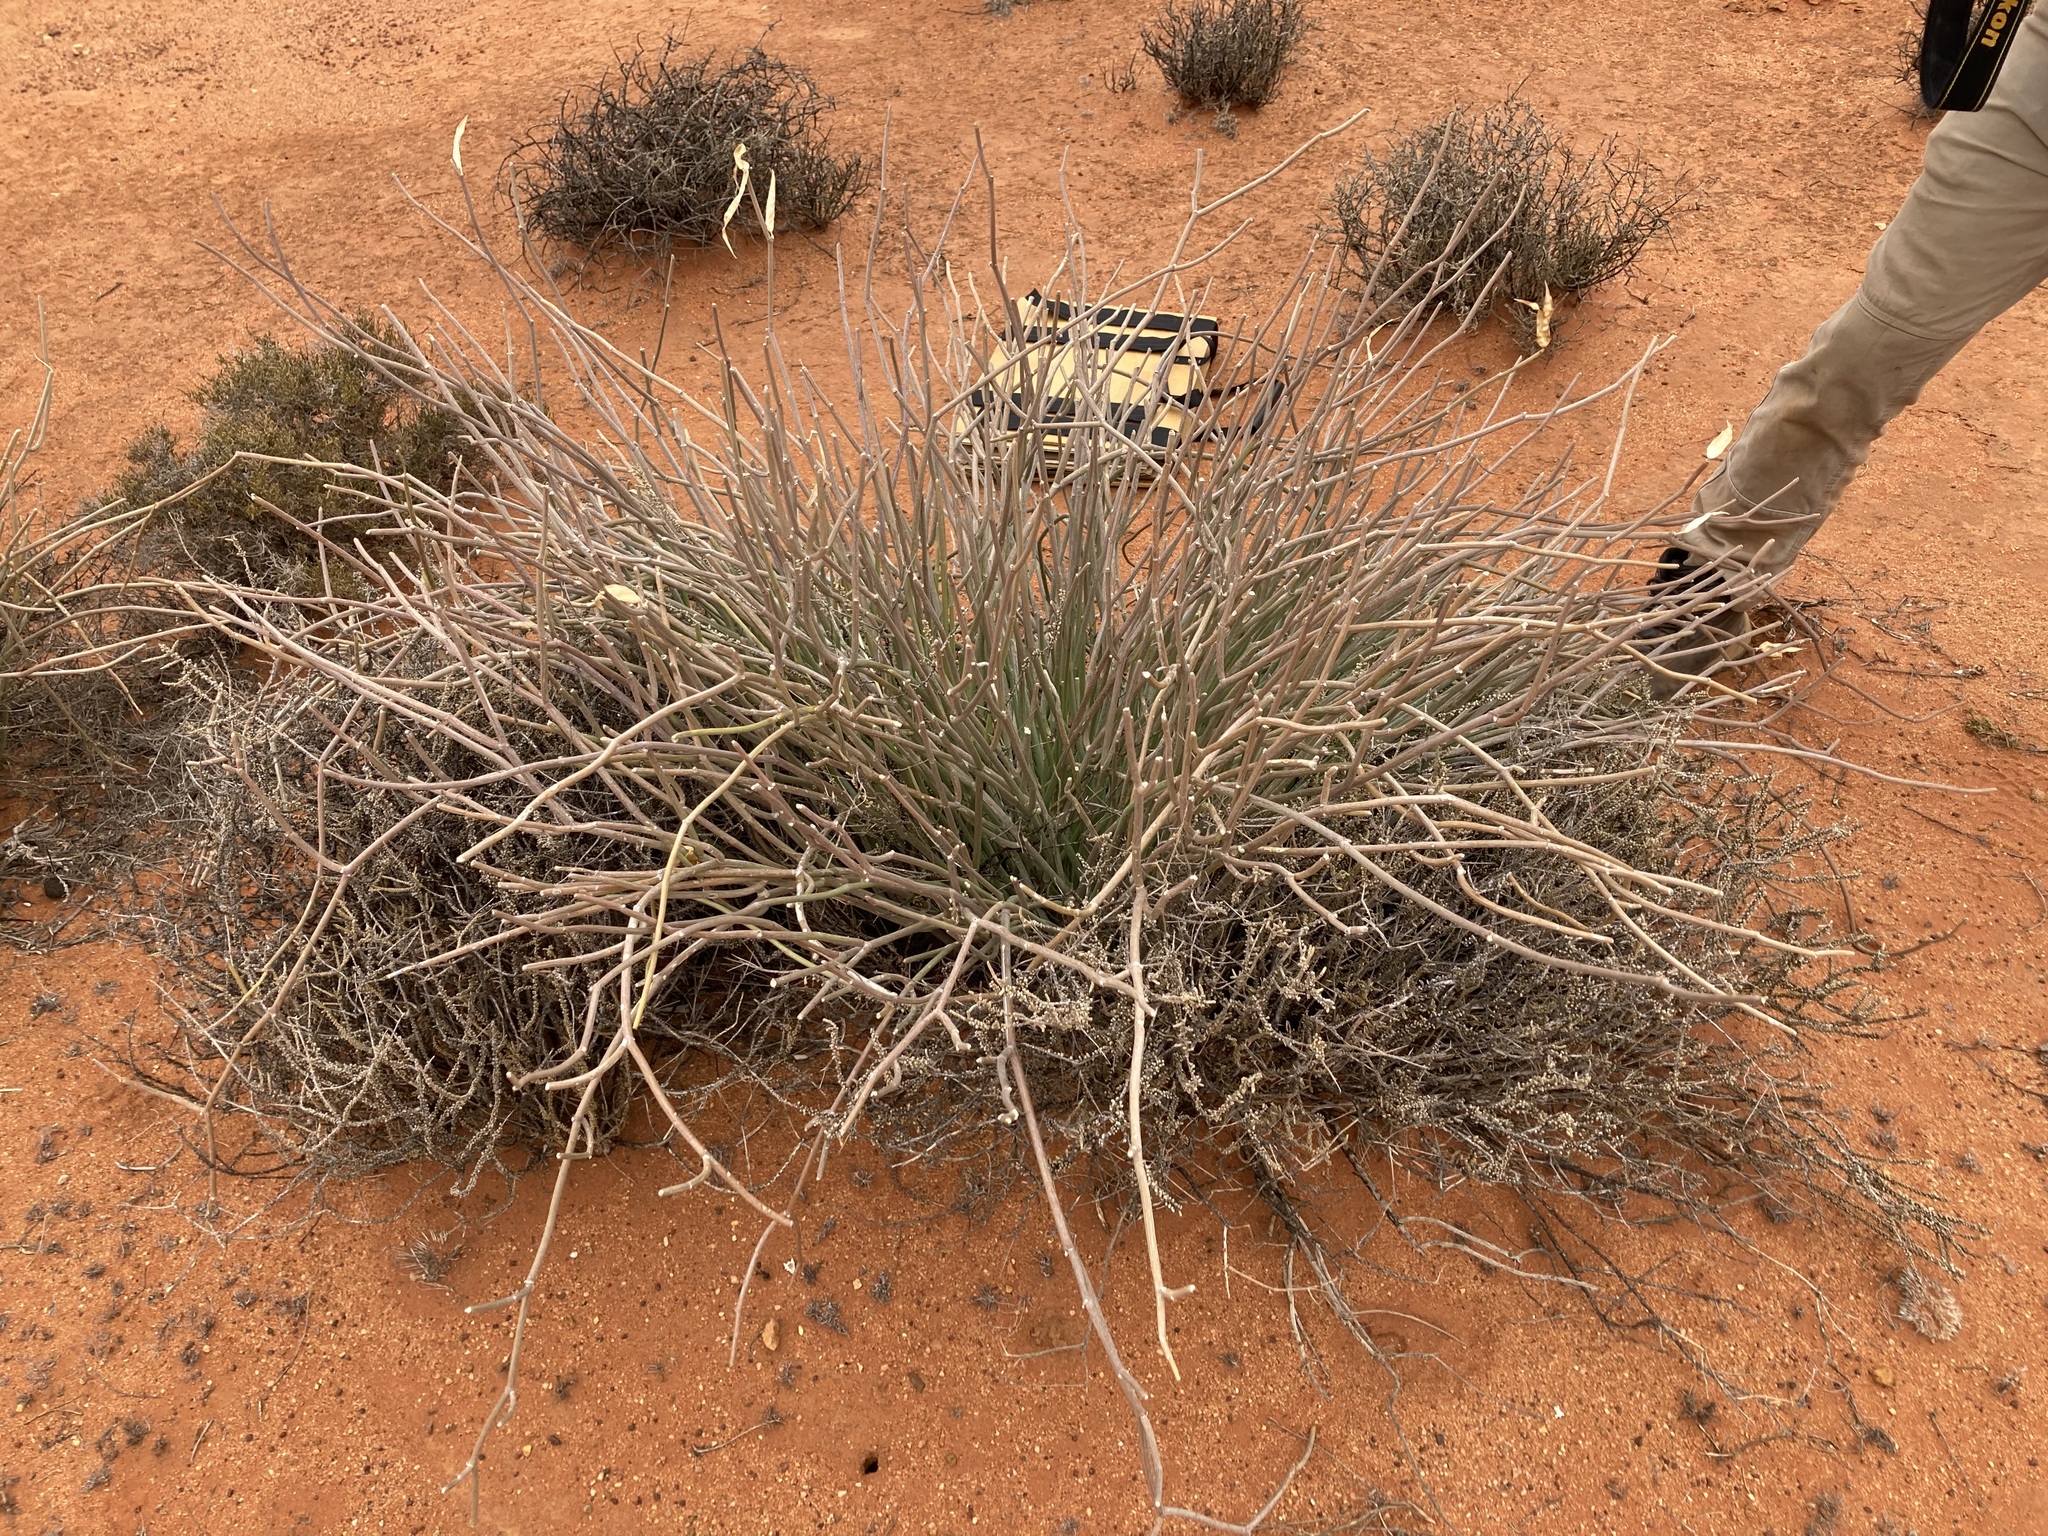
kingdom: Plantae
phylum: Tracheophyta
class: Magnoliopsida
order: Gentianales
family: Apocynaceae
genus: Cynanchum
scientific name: Cynanchum viminale
